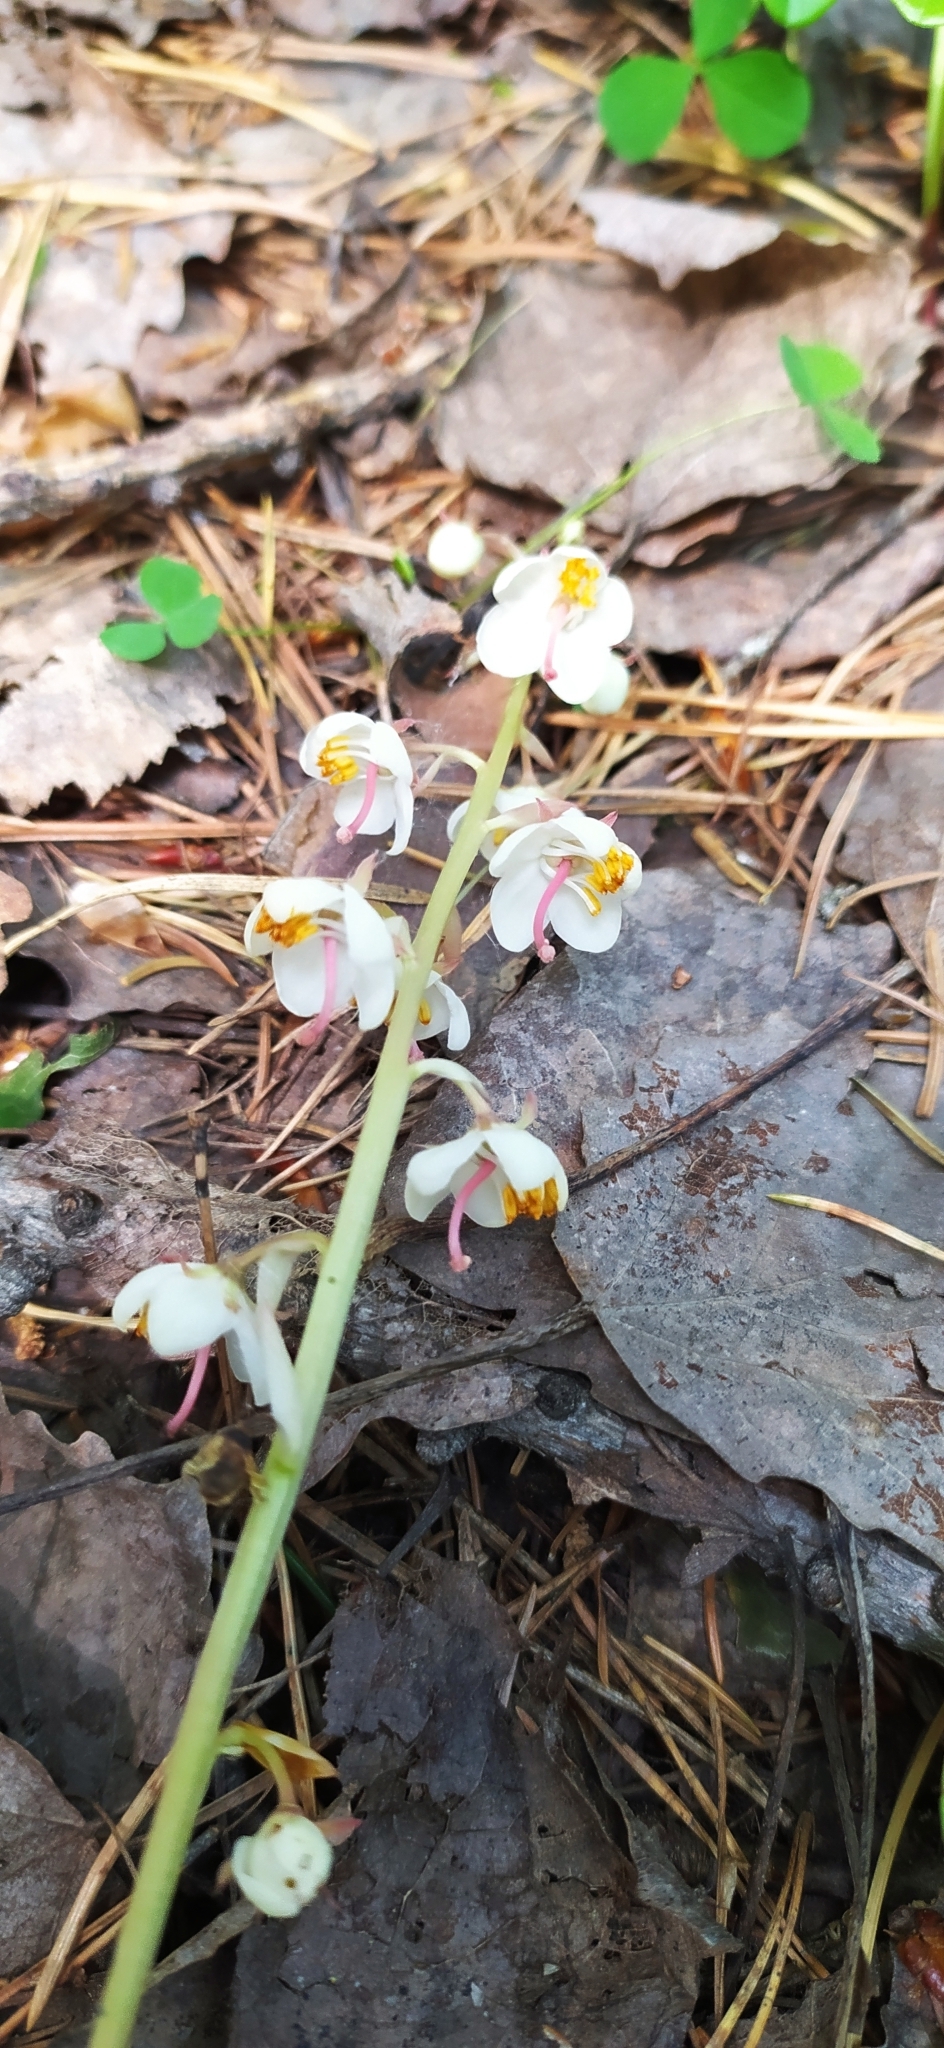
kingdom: Plantae
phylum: Tracheophyta
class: Magnoliopsida
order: Ericales
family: Ericaceae
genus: Pyrola
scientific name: Pyrola rotundifolia
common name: Round-leaved wintergreen
